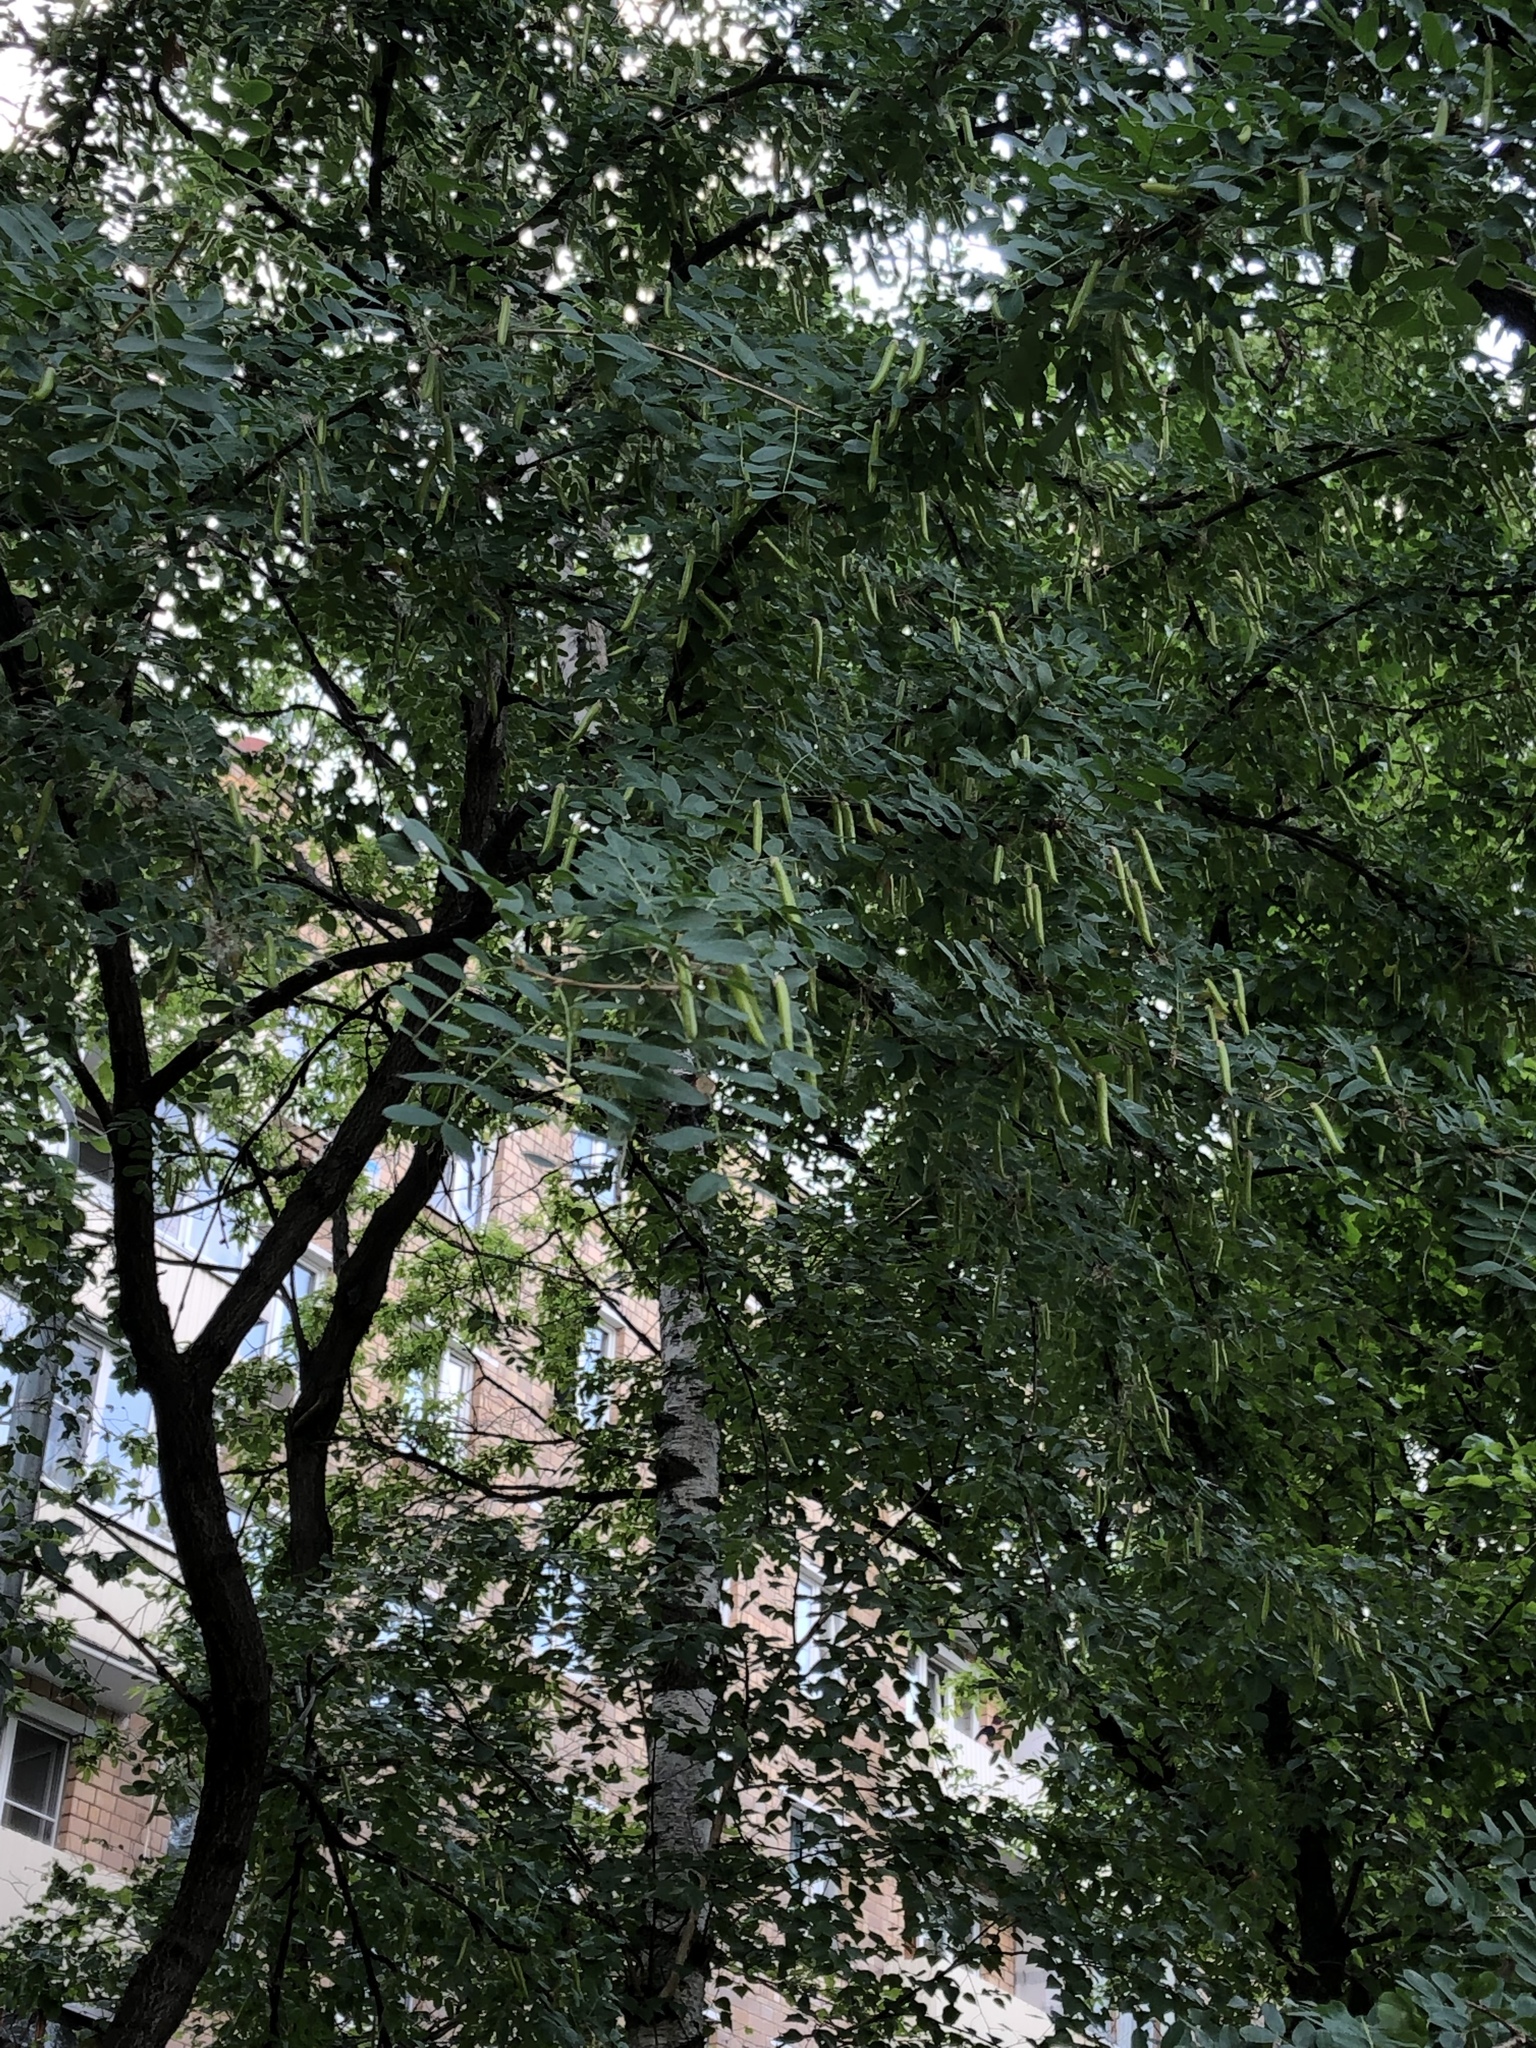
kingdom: Plantae
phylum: Tracheophyta
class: Magnoliopsida
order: Fabales
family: Fabaceae
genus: Caragana
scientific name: Caragana arborescens
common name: Siberian peashrub
